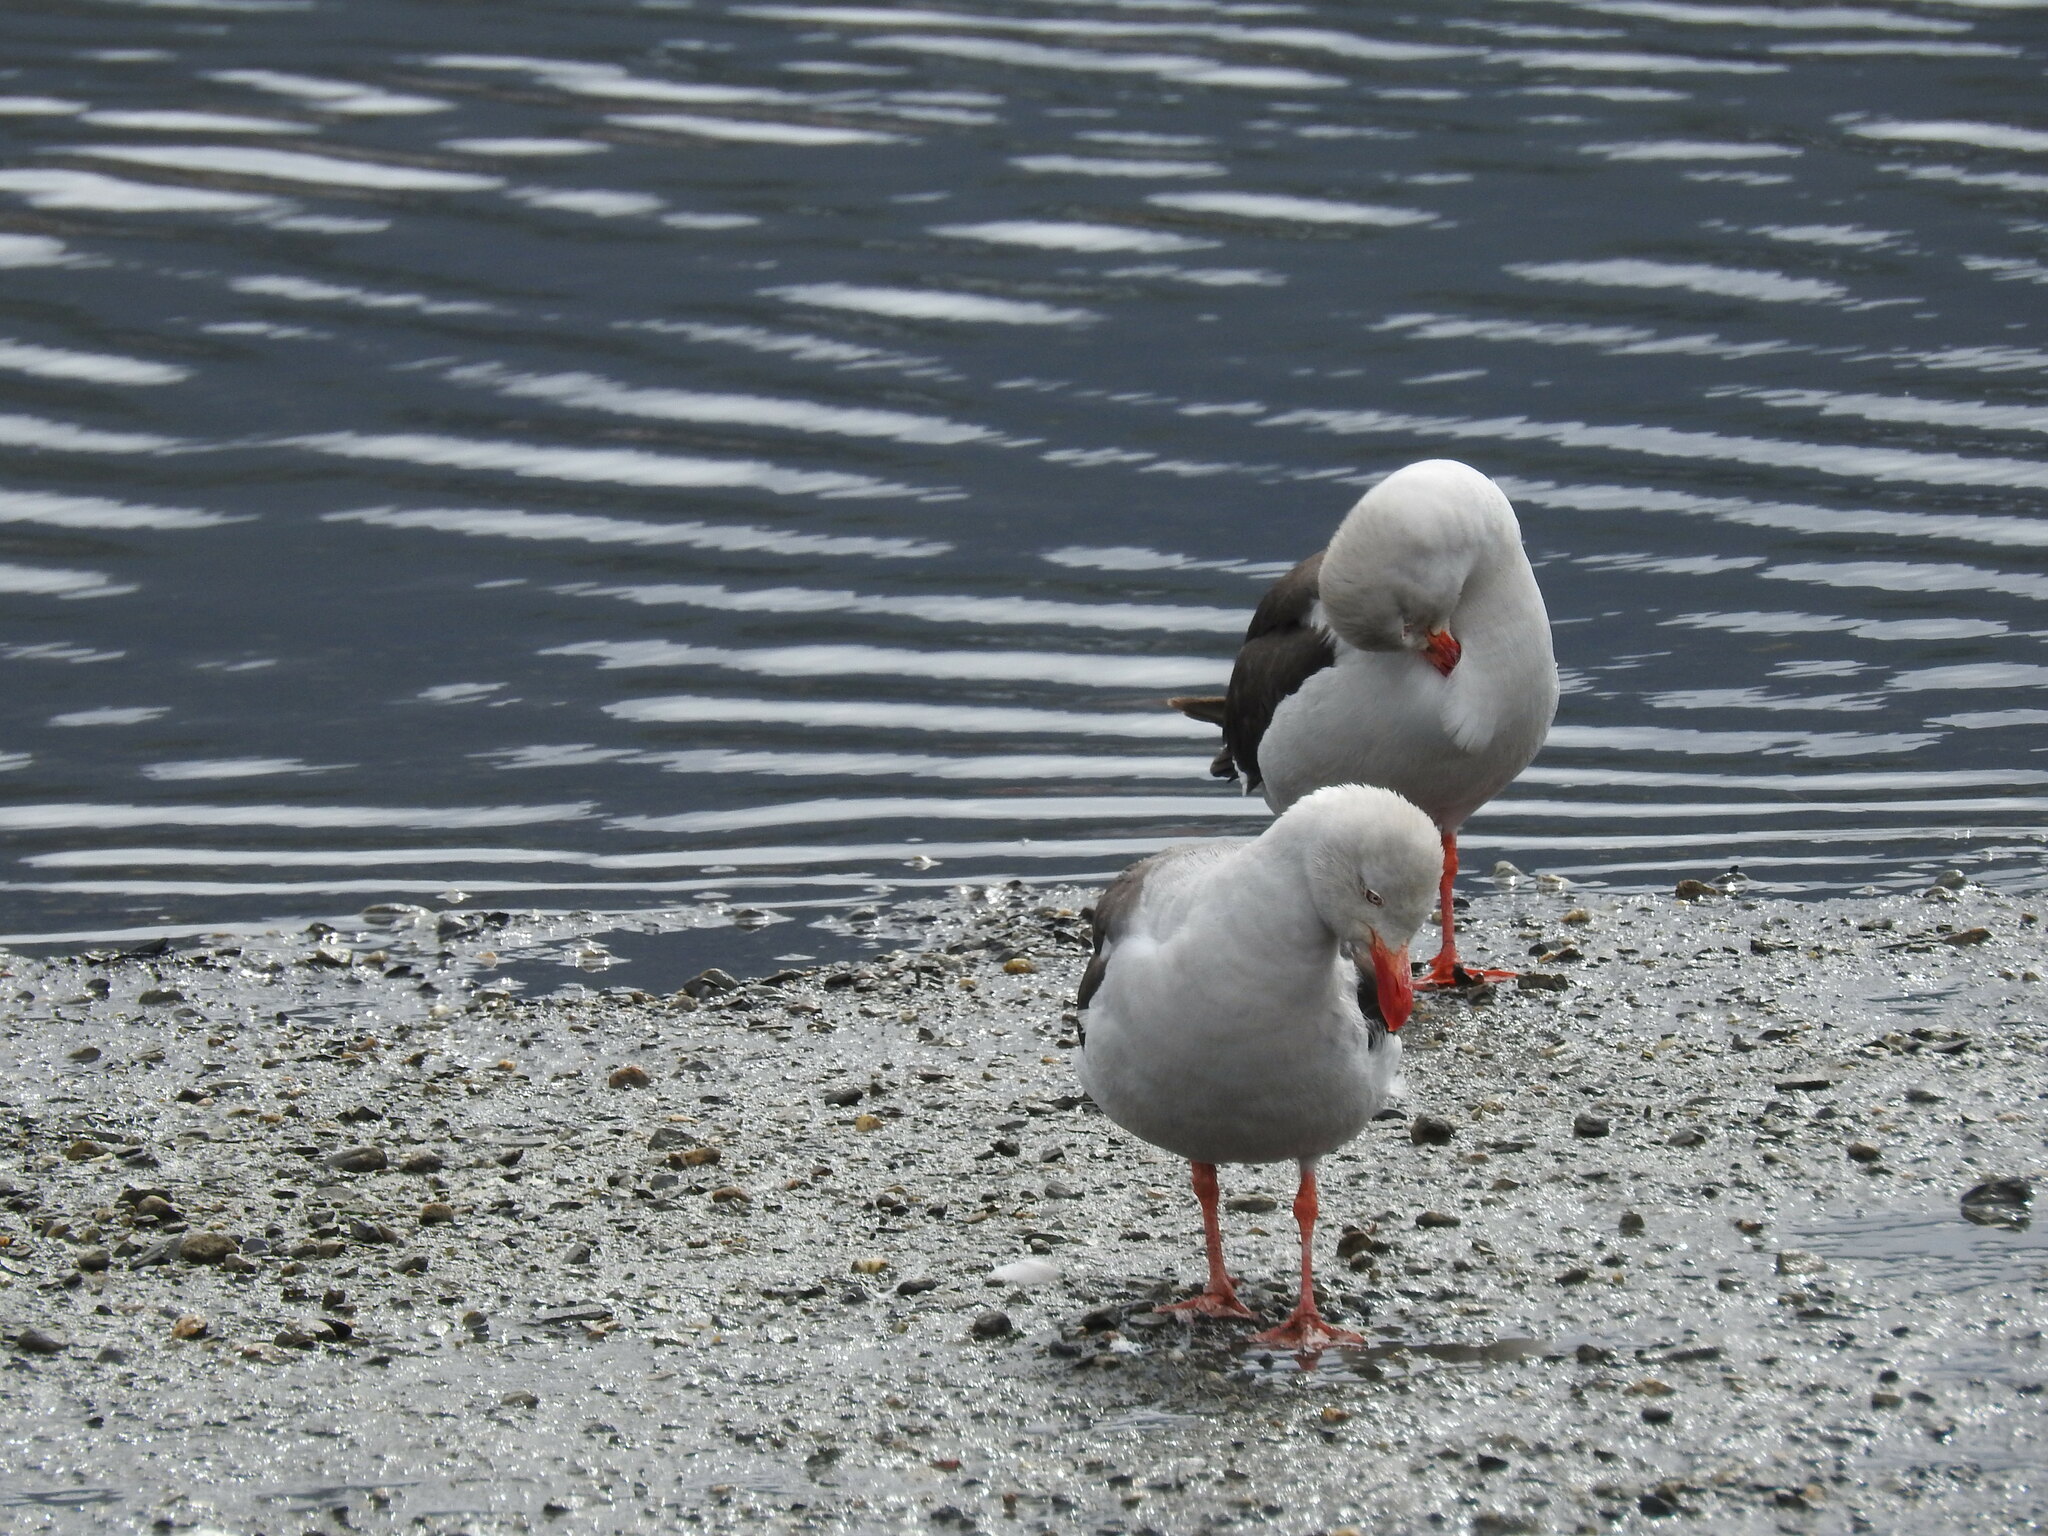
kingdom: Animalia
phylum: Chordata
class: Aves
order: Charadriiformes
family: Laridae
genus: Leucophaeus
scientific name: Leucophaeus scoresbii
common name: Dolphin gull
